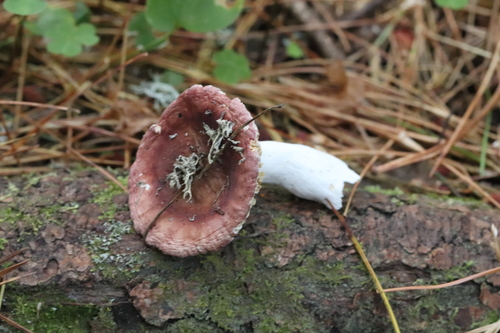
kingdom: Fungi
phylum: Basidiomycota
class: Agaricomycetes
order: Russulales
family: Russulaceae
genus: Russula
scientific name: Russula
